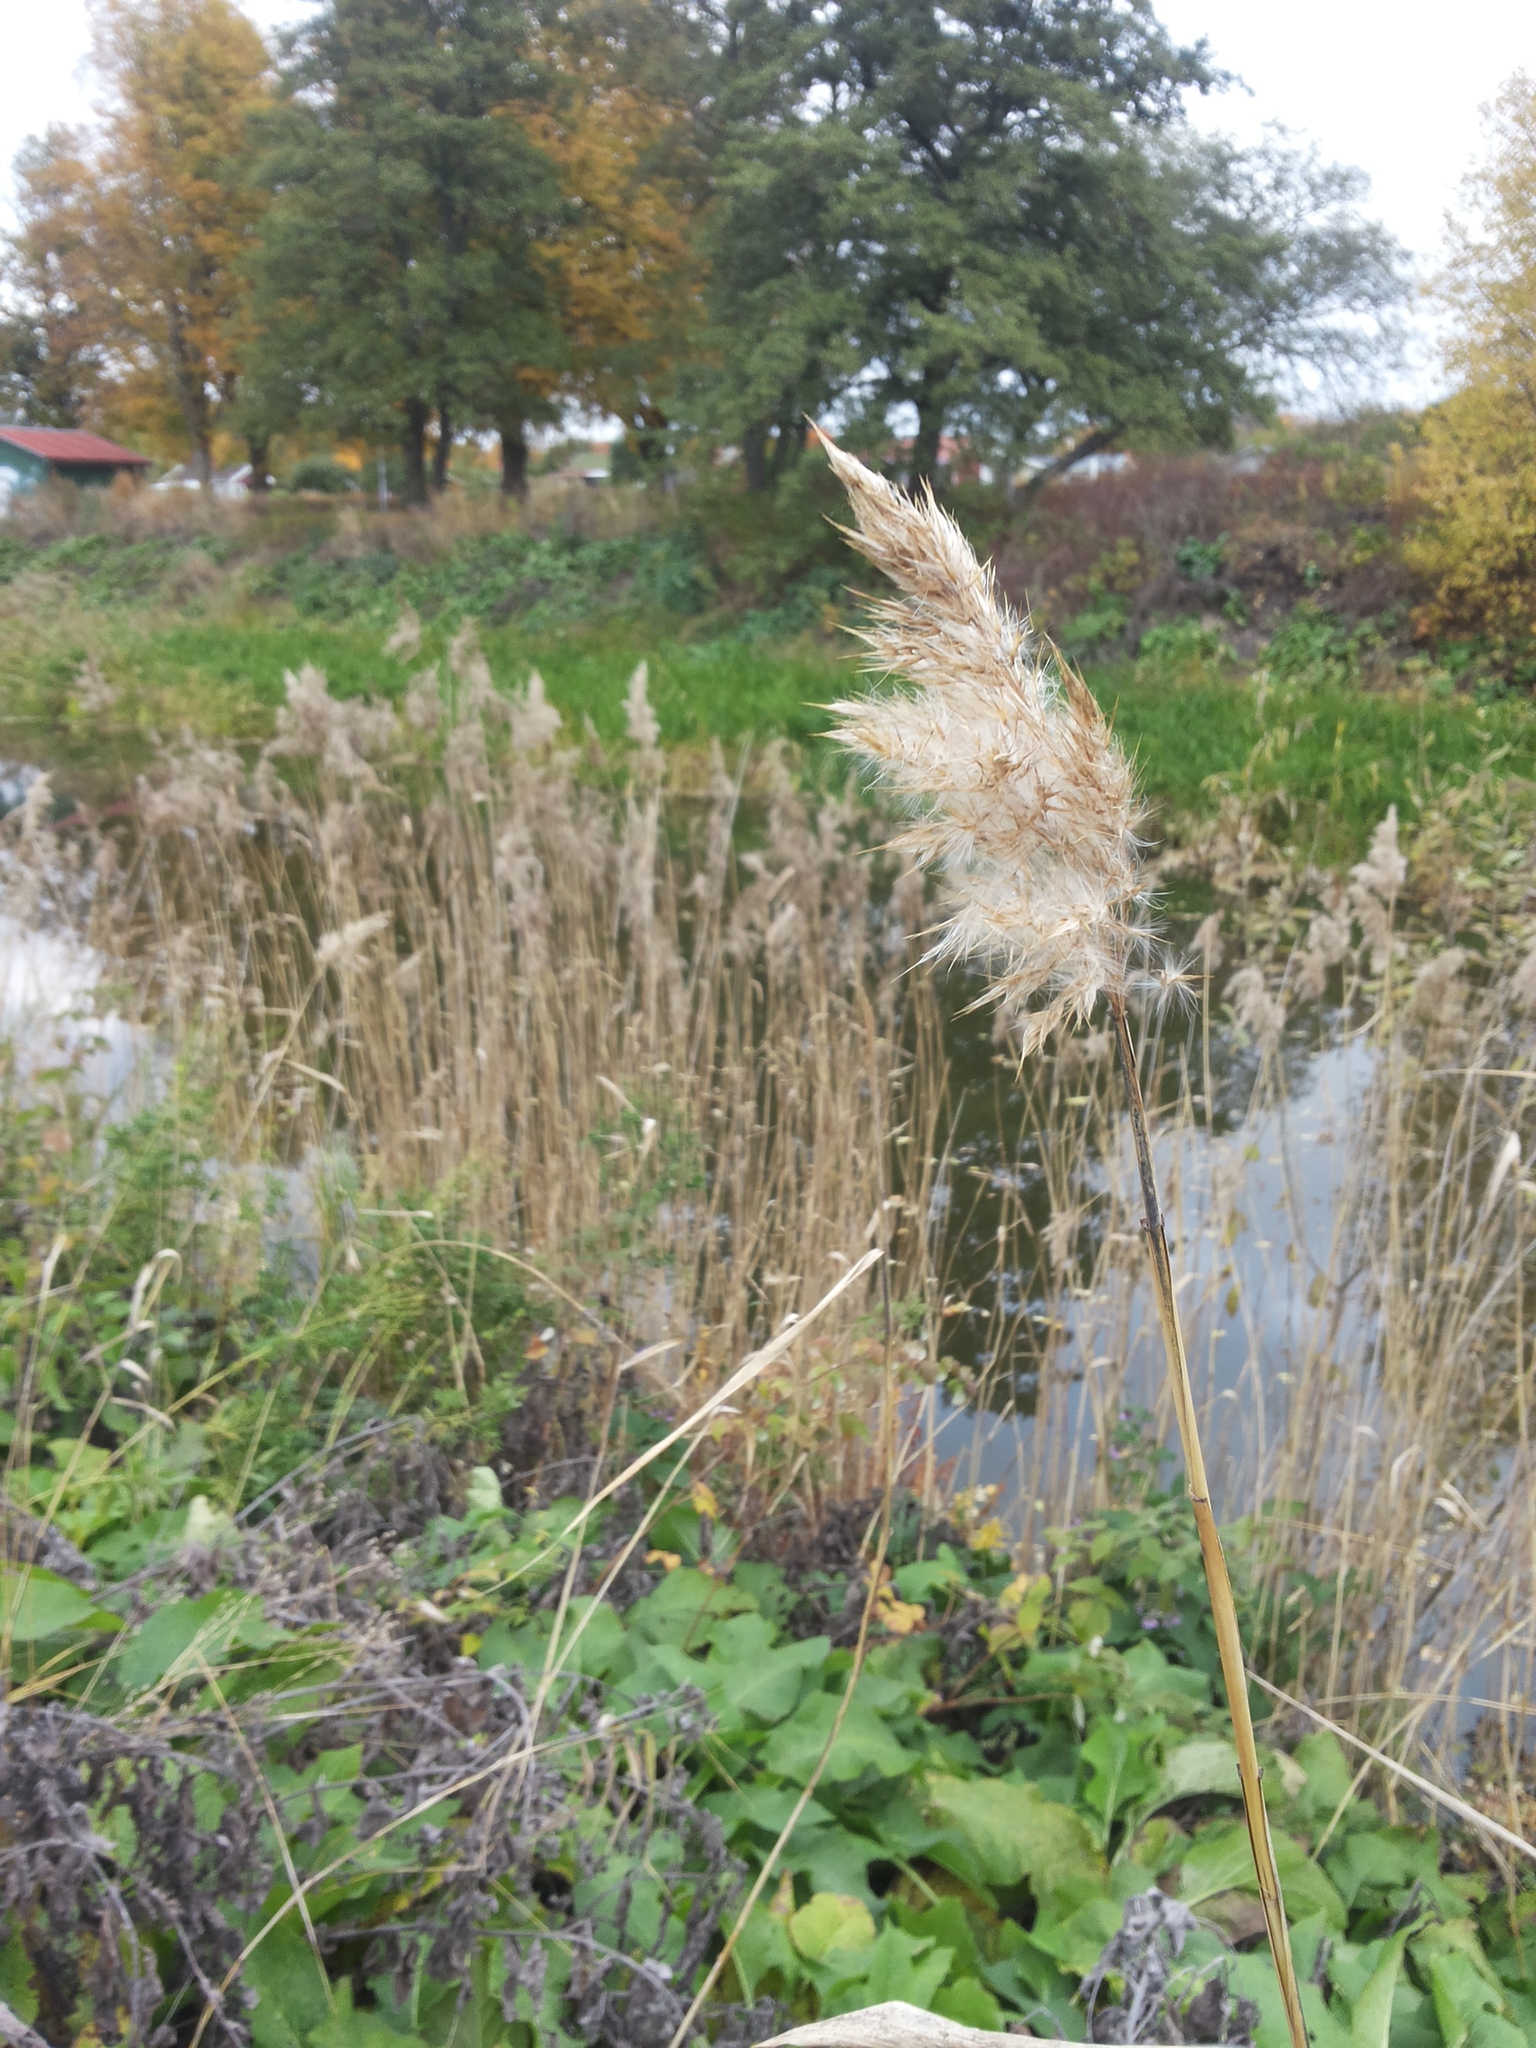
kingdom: Plantae
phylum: Tracheophyta
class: Liliopsida
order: Poales
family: Poaceae
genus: Phragmites
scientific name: Phragmites australis
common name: Common reed
